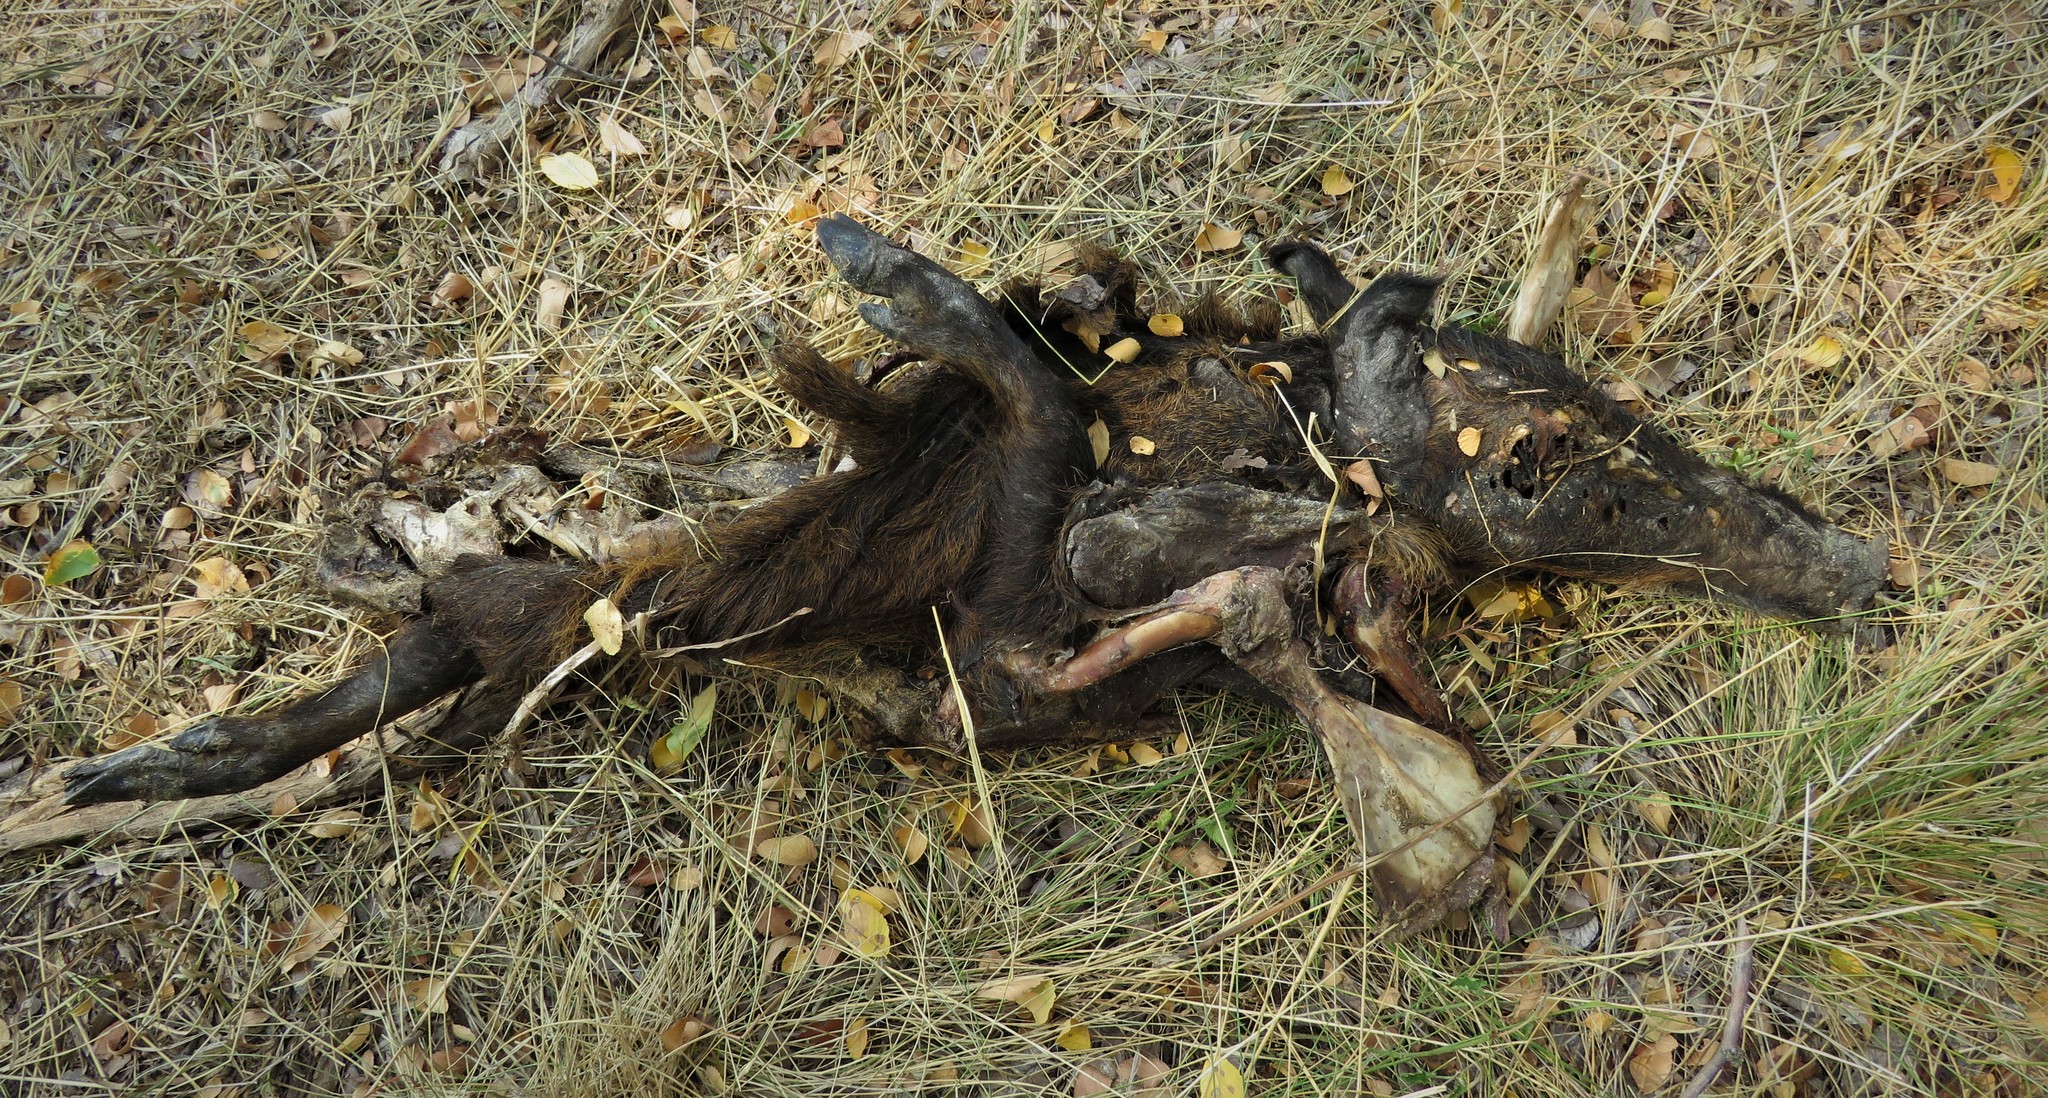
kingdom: Animalia
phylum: Chordata
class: Mammalia
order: Artiodactyla
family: Suidae
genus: Sus
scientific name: Sus scrofa
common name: Wild boar
